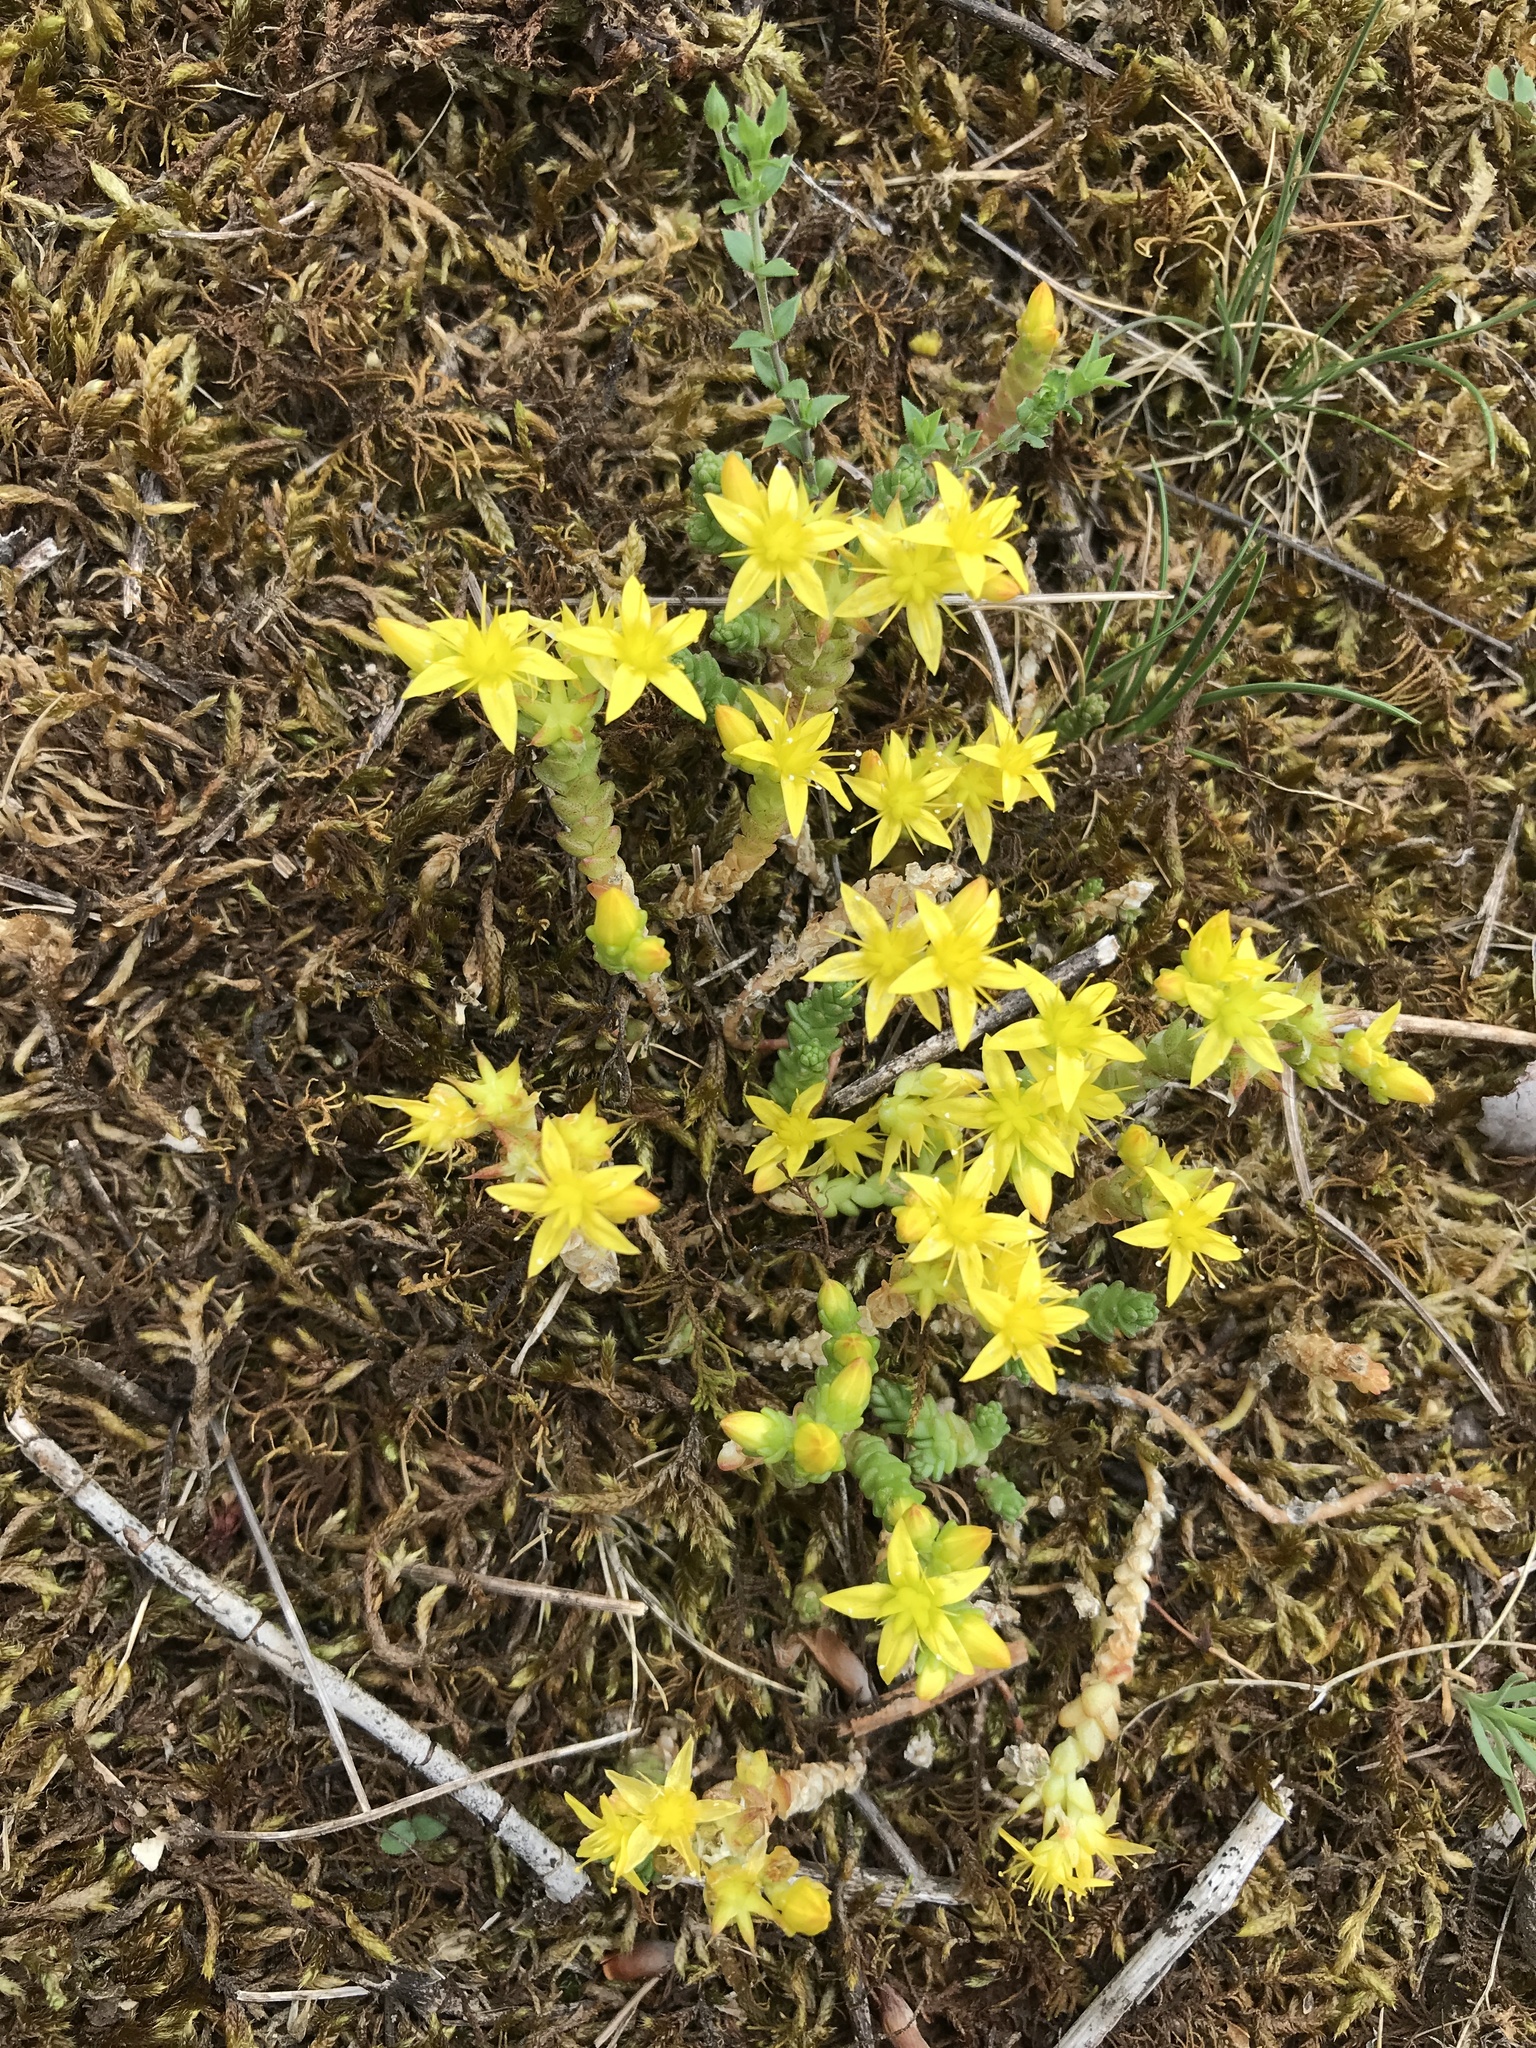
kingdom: Plantae
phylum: Tracheophyta
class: Magnoliopsida
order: Saxifragales
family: Crassulaceae
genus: Sedum
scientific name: Sedum acre
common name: Biting stonecrop
